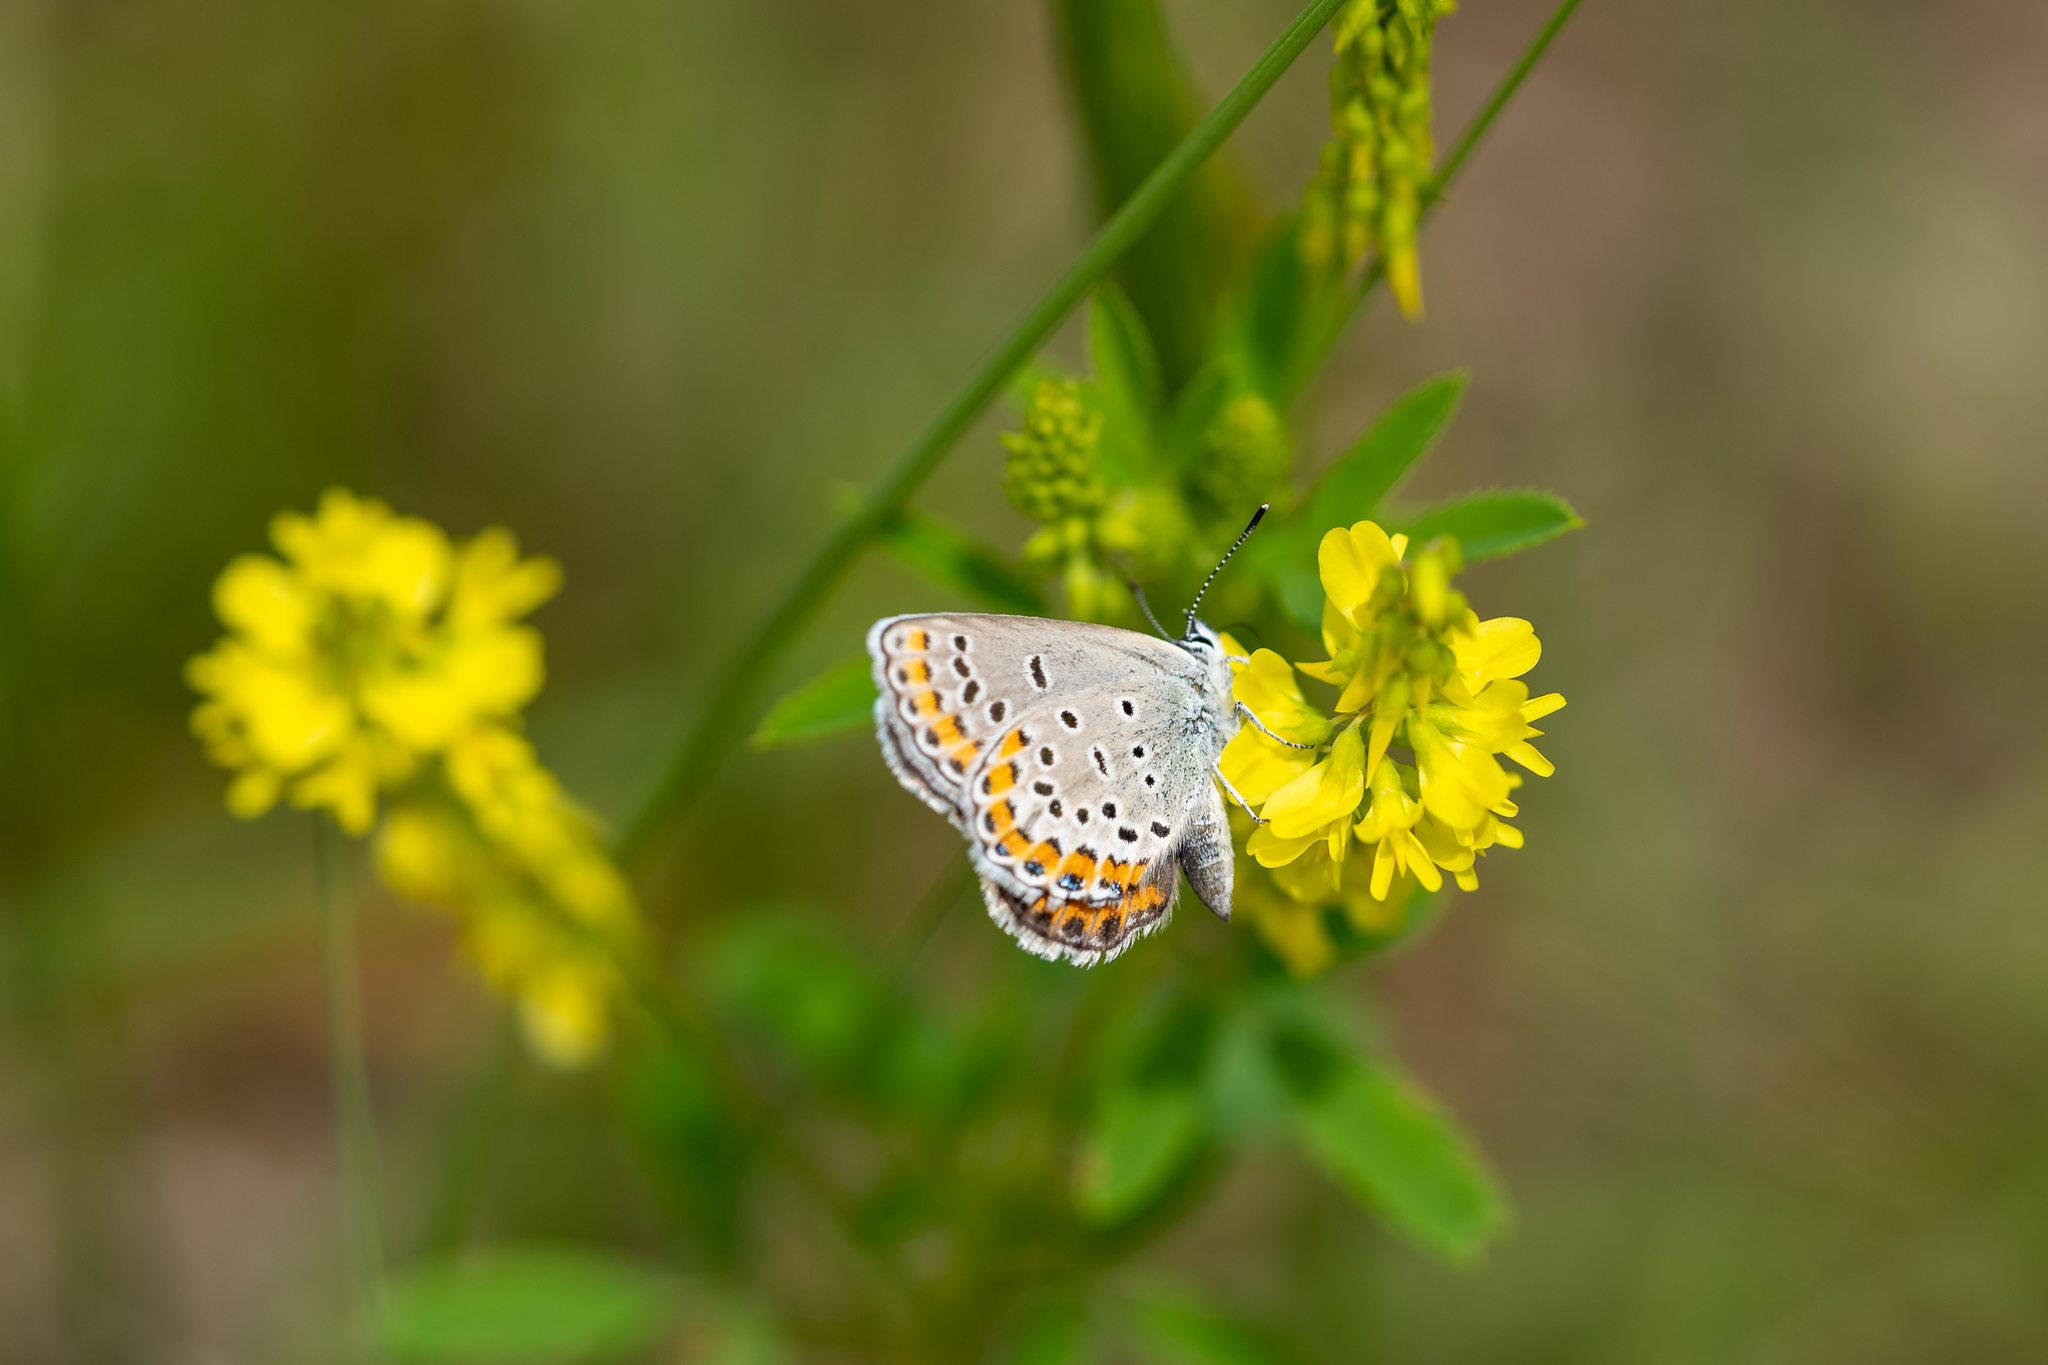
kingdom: Animalia
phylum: Arthropoda
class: Insecta
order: Lepidoptera
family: Lycaenidae
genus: Lycaeides
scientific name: Lycaeides melissa
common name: Melissa blue
